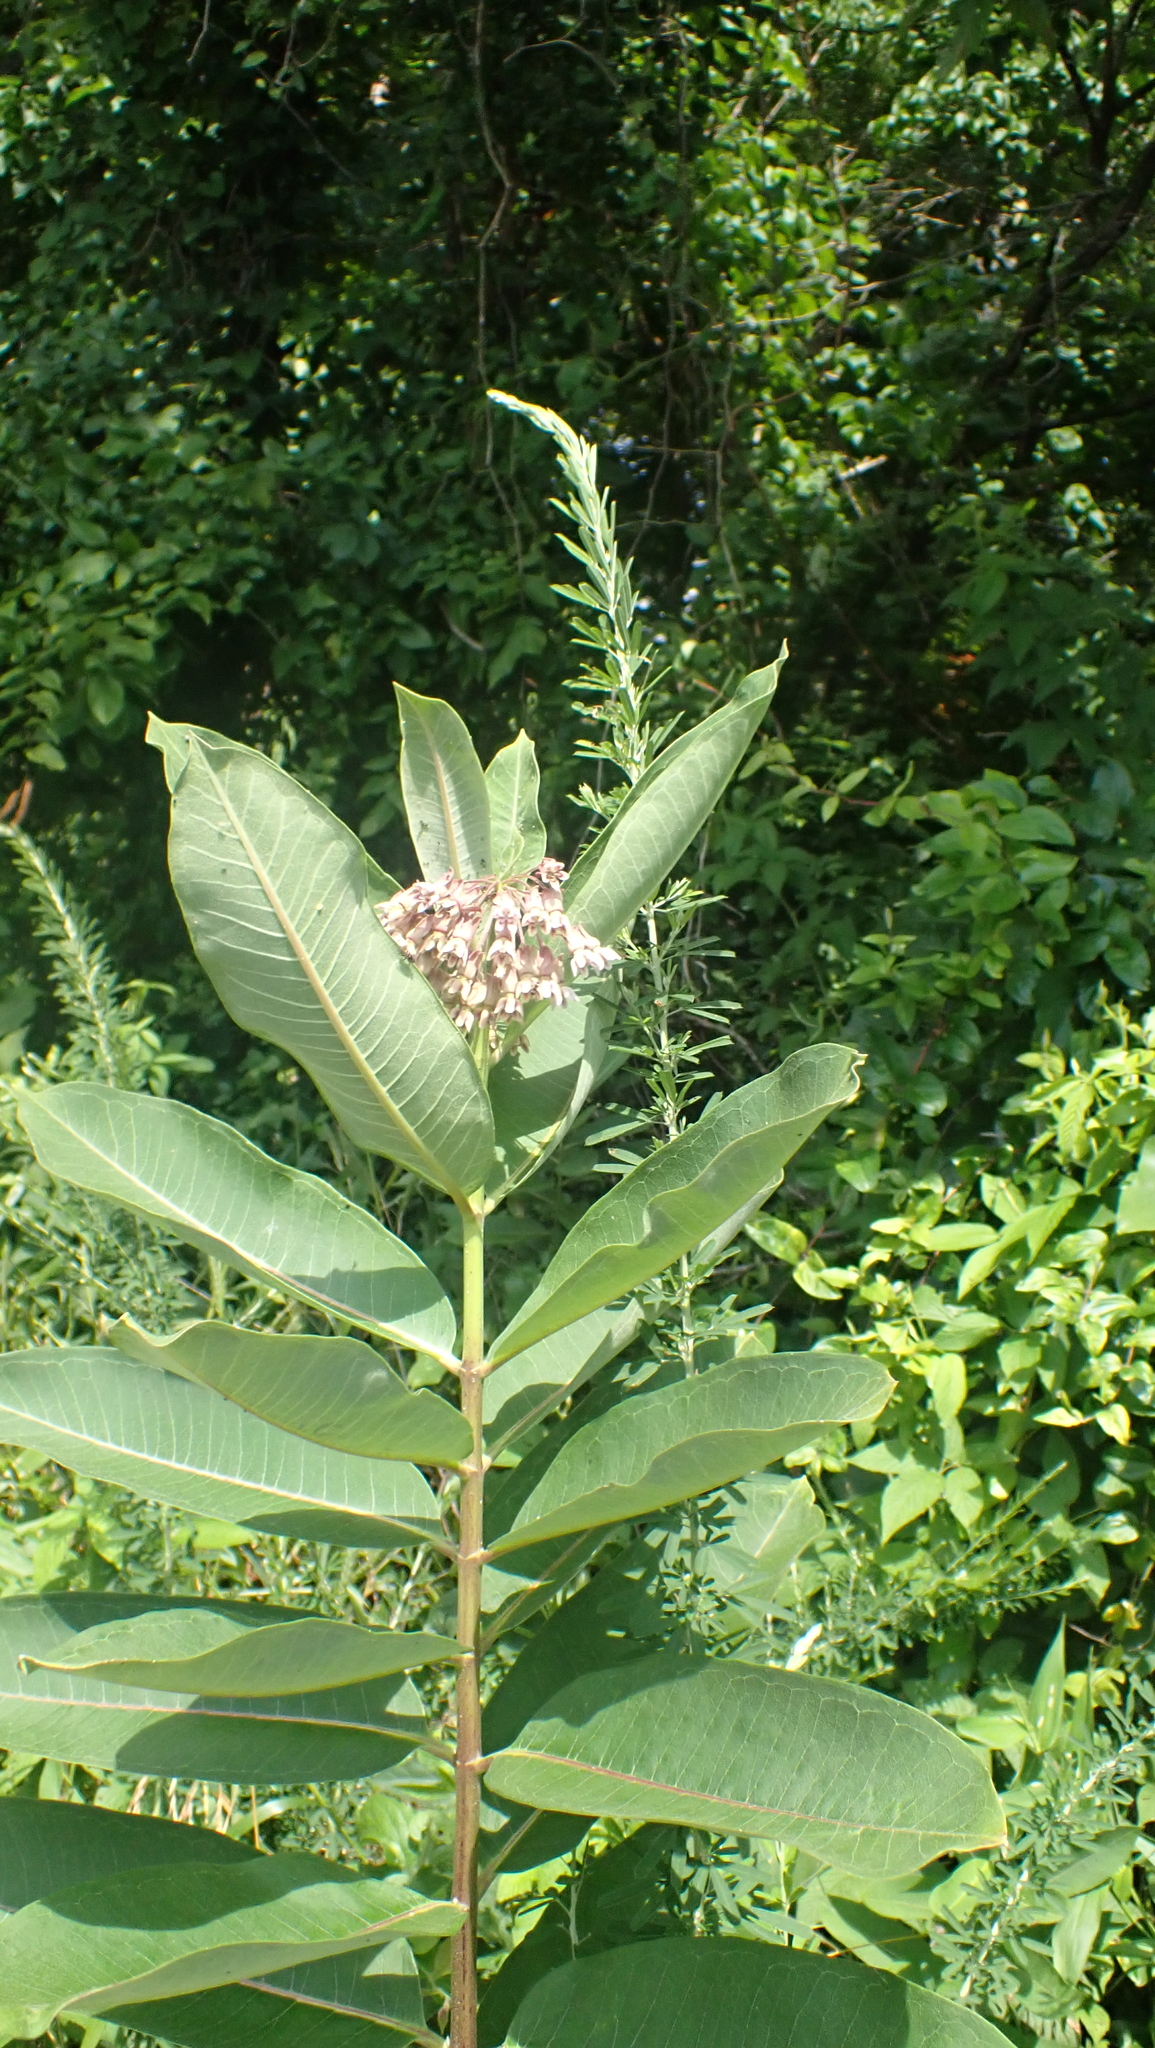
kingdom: Plantae
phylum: Tracheophyta
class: Magnoliopsida
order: Gentianales
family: Apocynaceae
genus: Asclepias
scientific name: Asclepias syriaca
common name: Common milkweed
